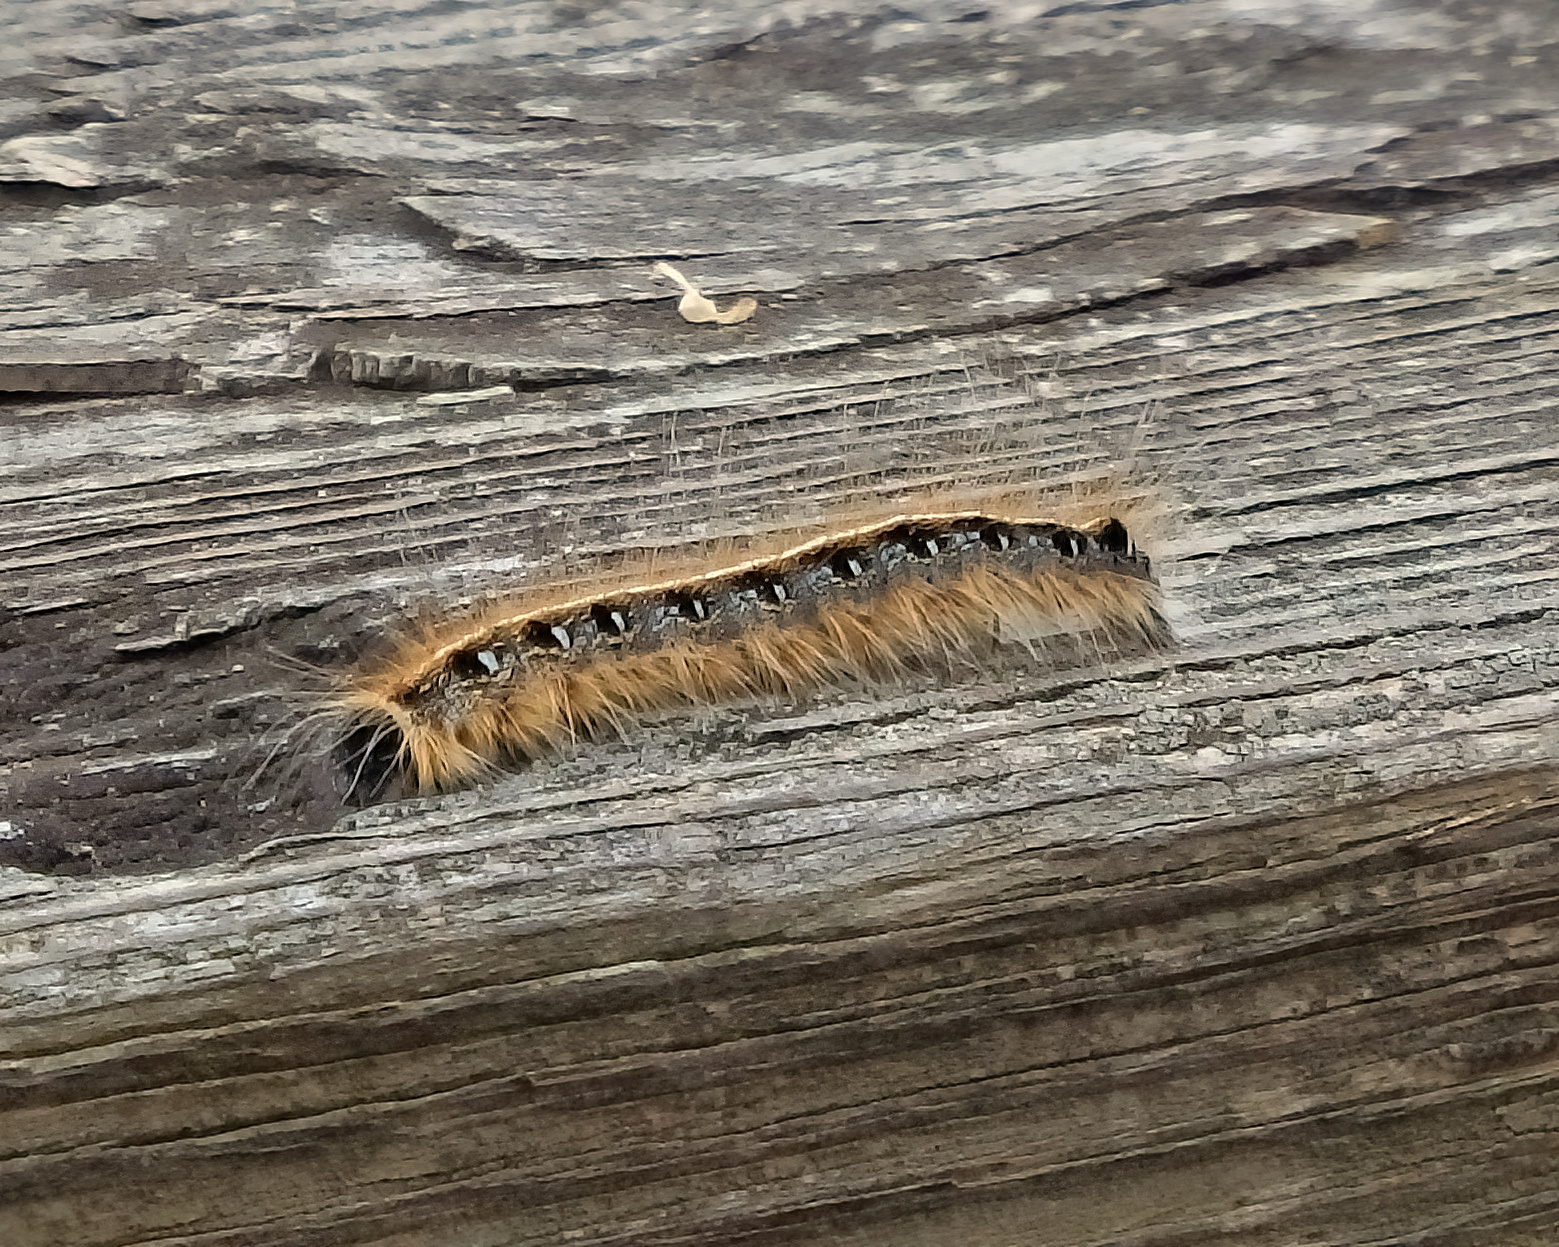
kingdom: Animalia
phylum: Arthropoda
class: Insecta
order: Lepidoptera
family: Lasiocampidae
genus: Malacosoma
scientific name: Malacosoma americana
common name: Eastern tent caterpillar moth
